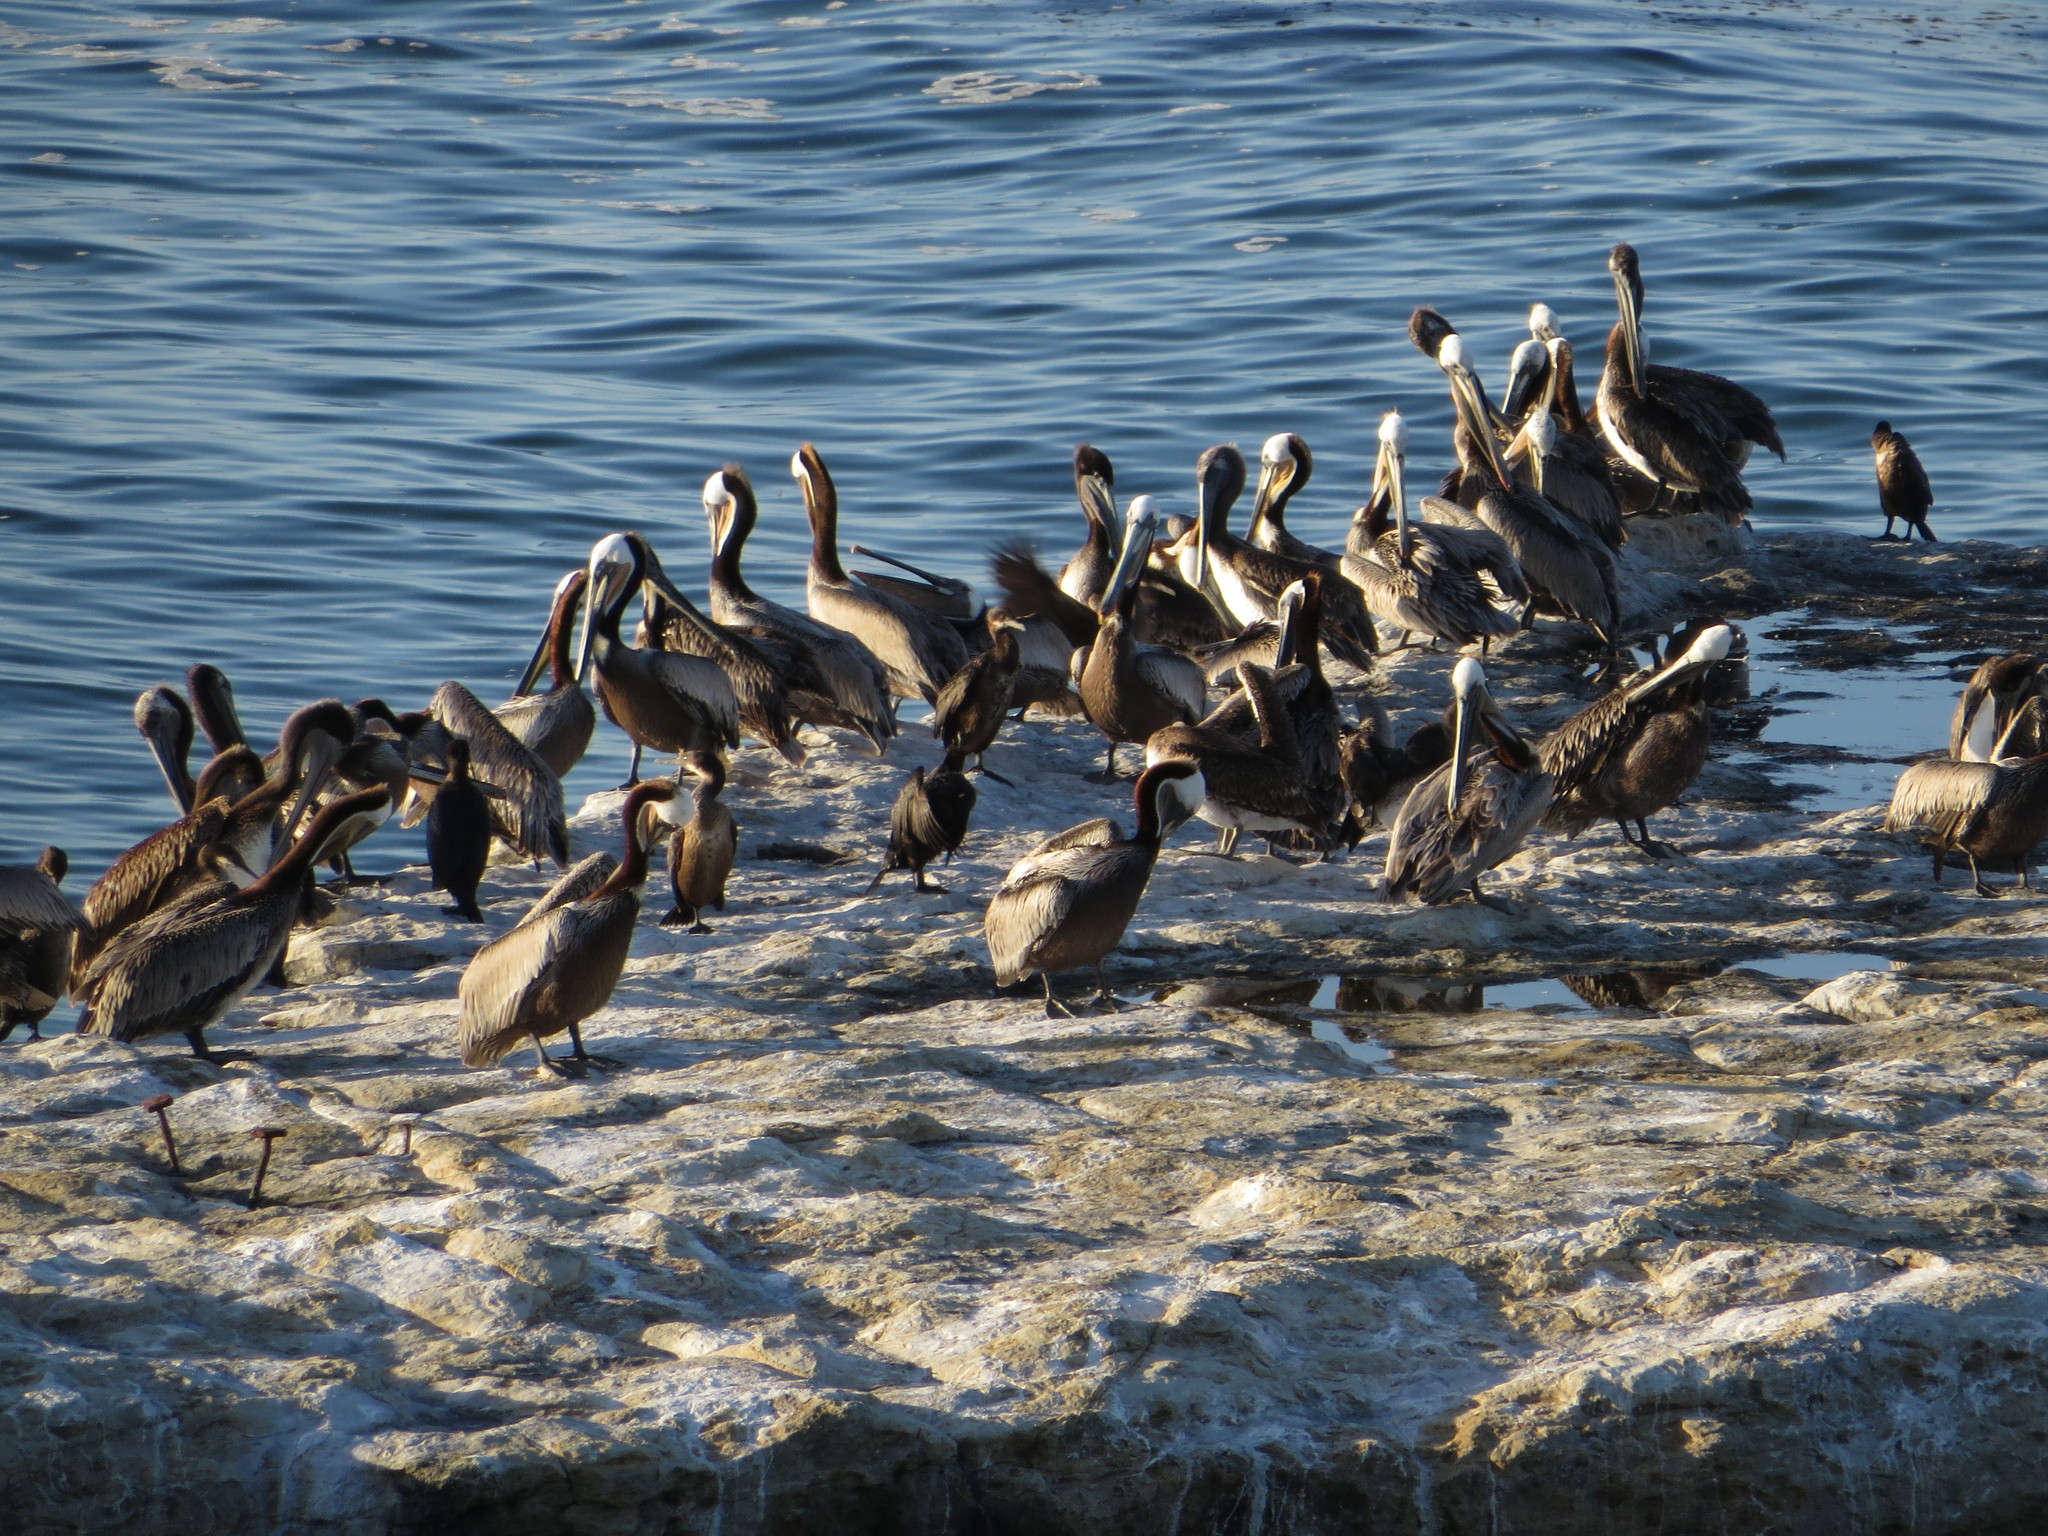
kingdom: Animalia
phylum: Chordata
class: Aves
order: Pelecaniformes
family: Pelecanidae
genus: Pelecanus
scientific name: Pelecanus occidentalis
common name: Brown pelican
